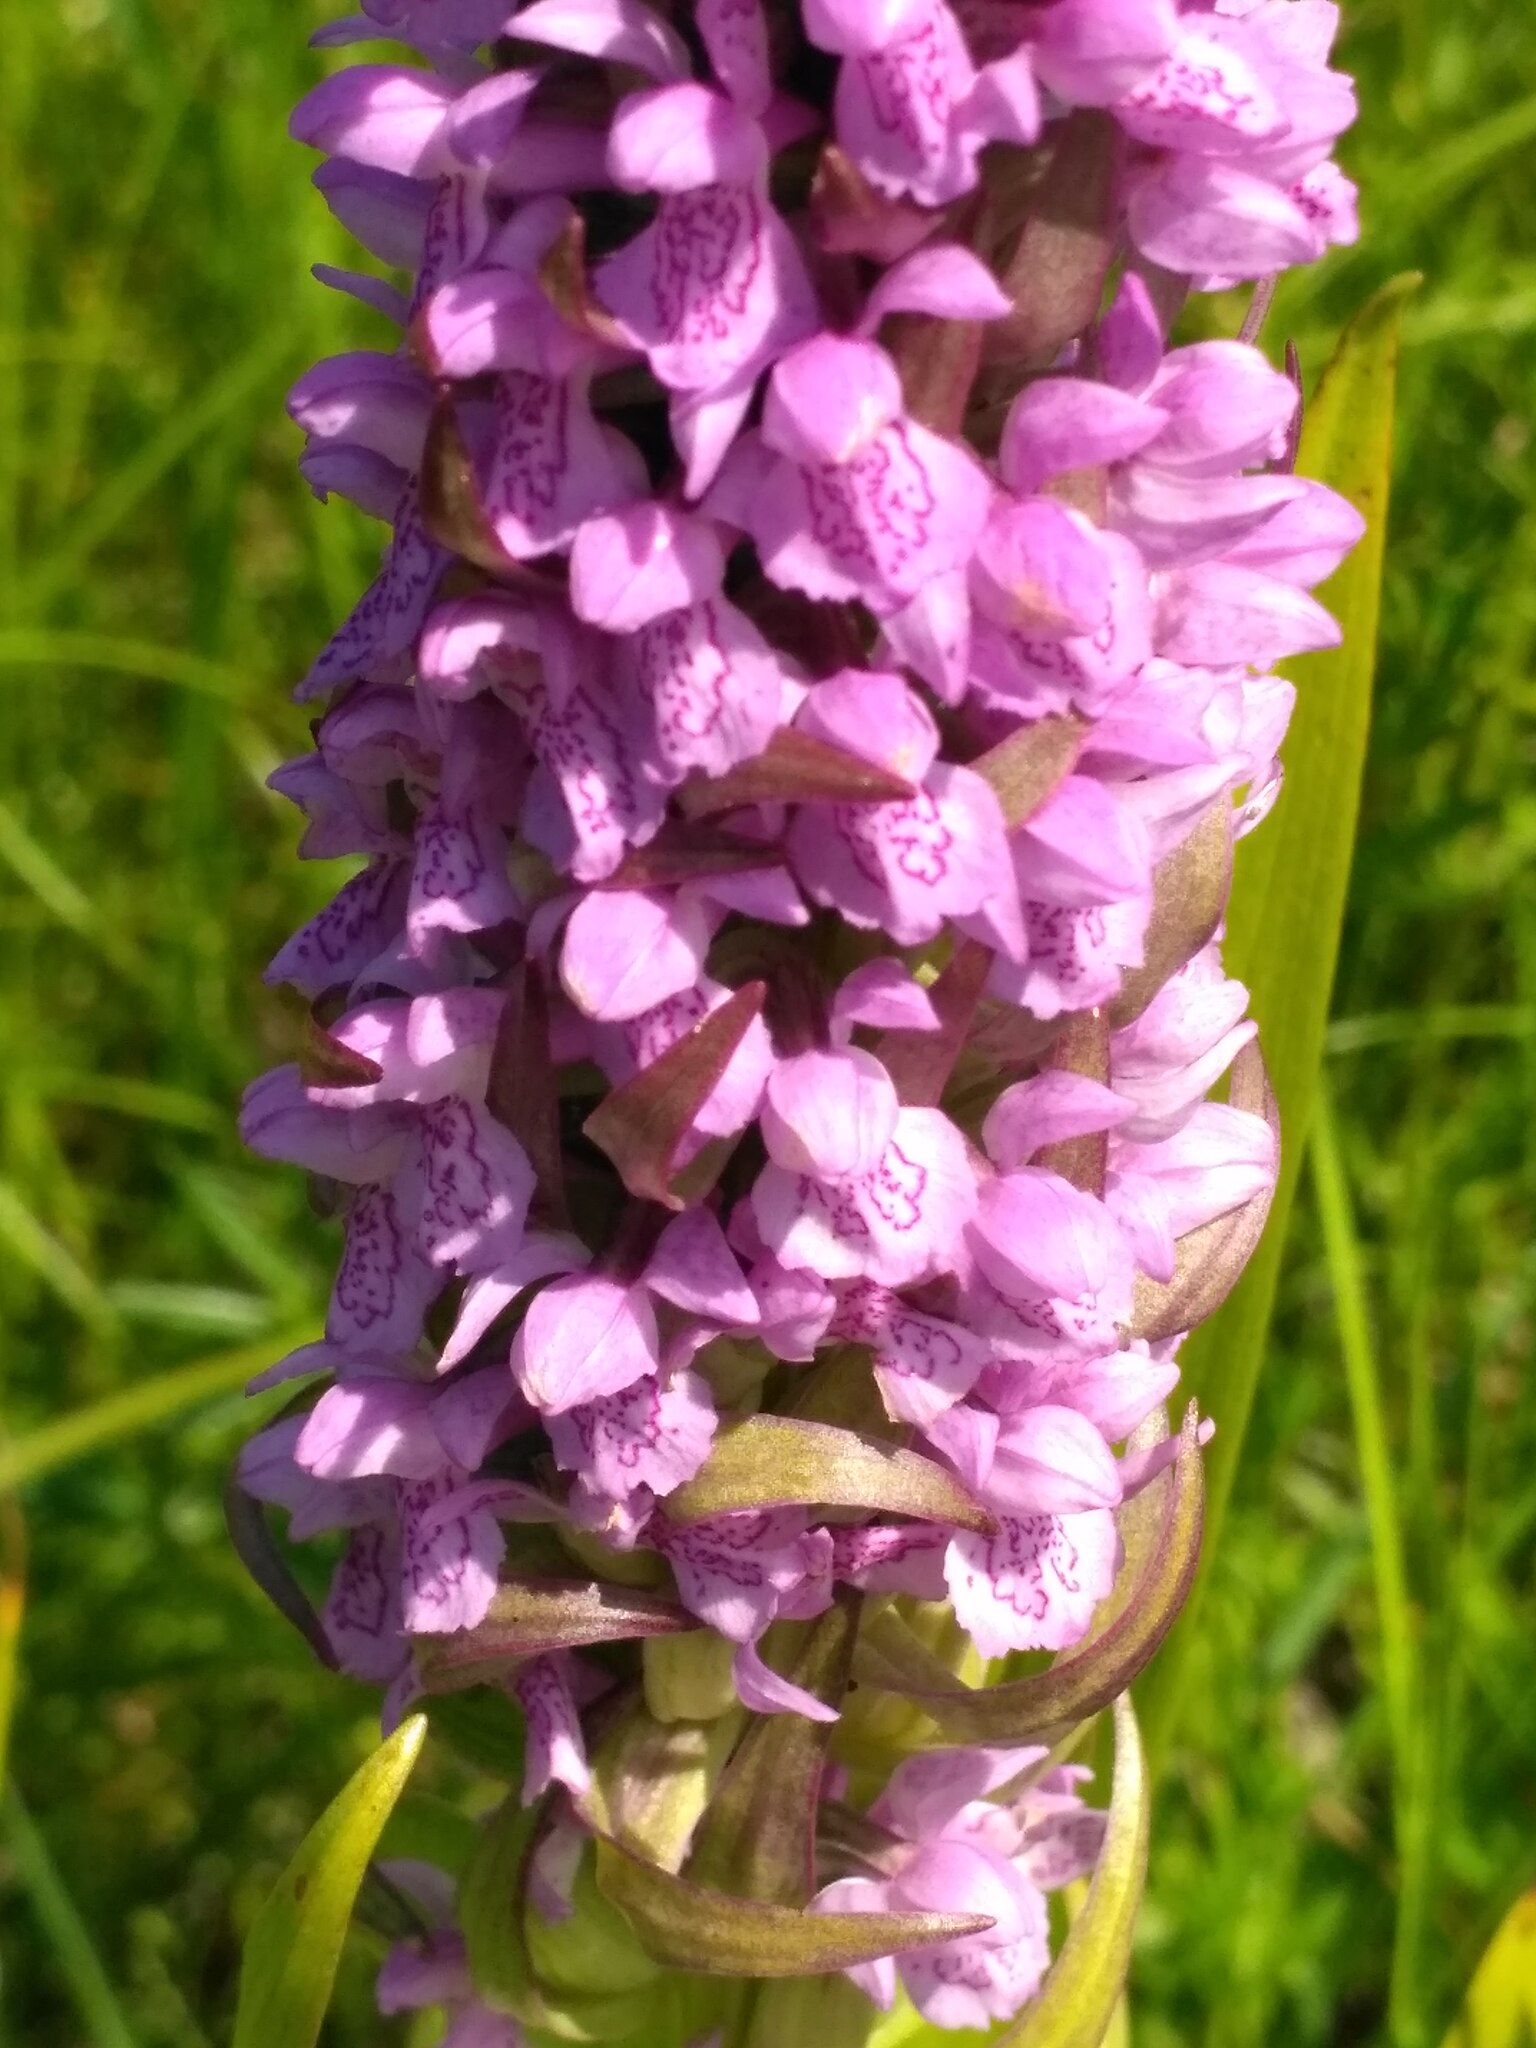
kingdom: Plantae
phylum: Tracheophyta
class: Liliopsida
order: Asparagales
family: Orchidaceae
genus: Dactylorhiza
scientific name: Dactylorhiza incarnata
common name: Early marsh-orchid
